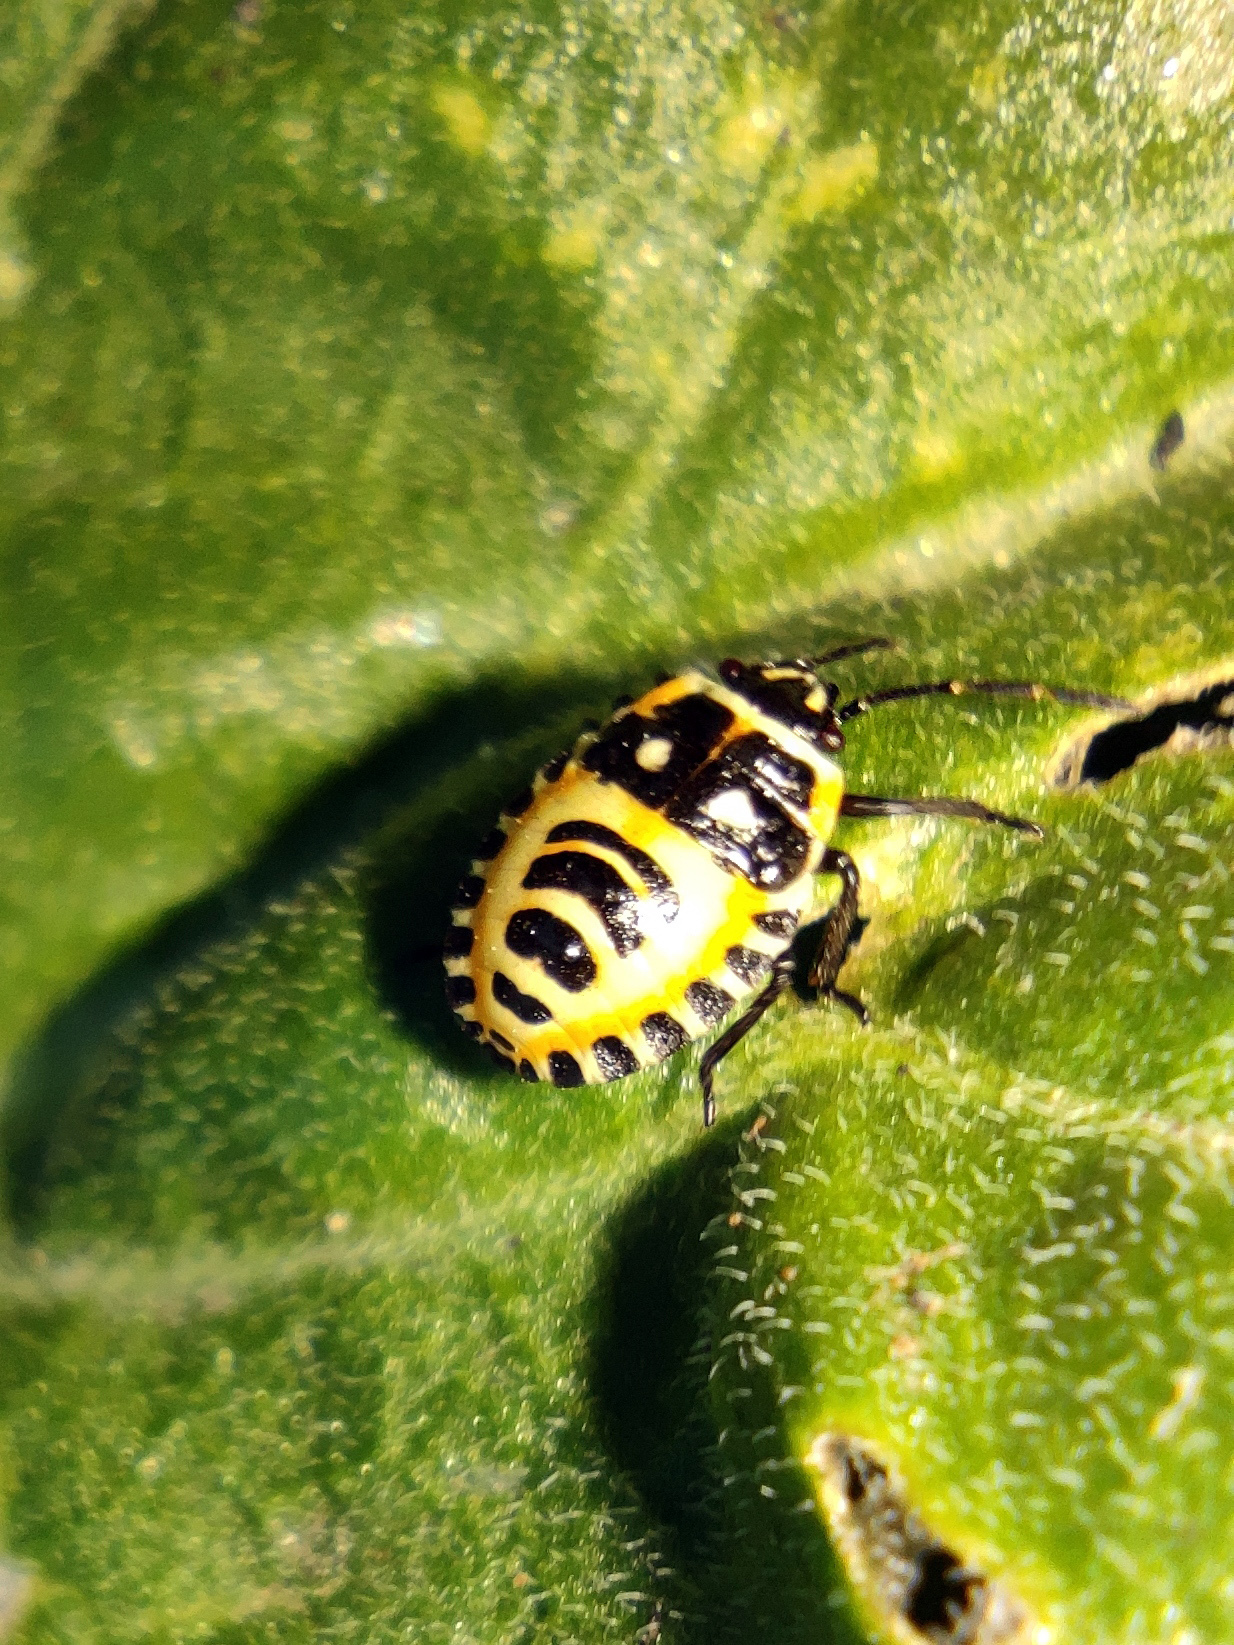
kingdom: Animalia
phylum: Arthropoda
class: Insecta
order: Hemiptera
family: Pentatomidae
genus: Eurydema
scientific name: Eurydema ventralis
